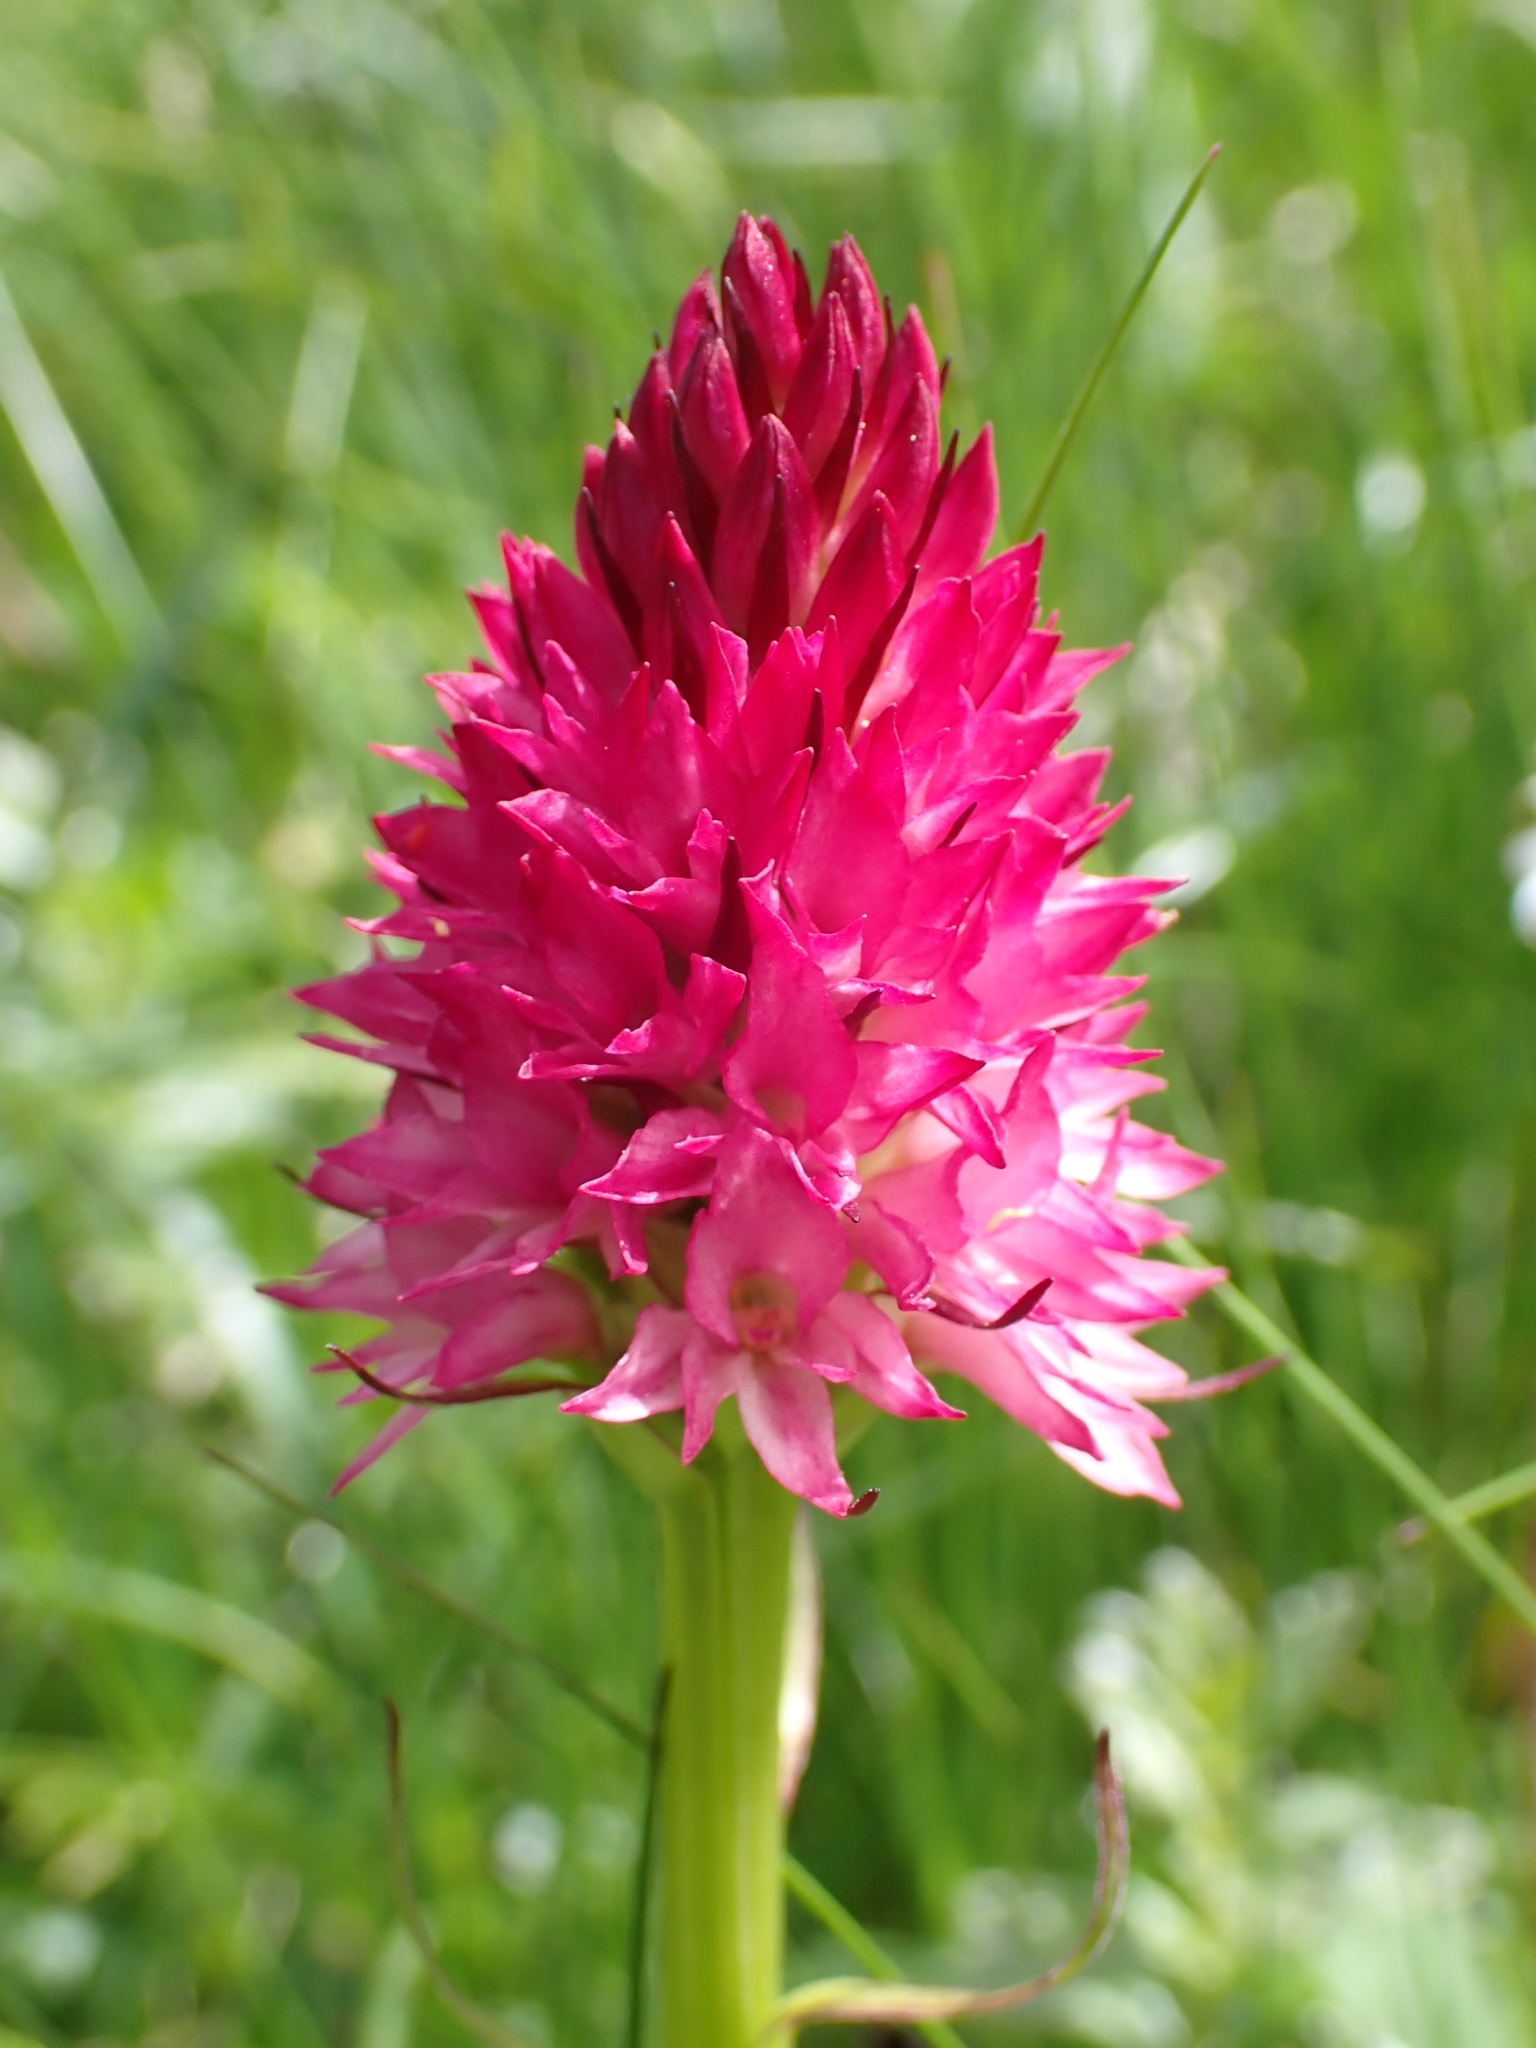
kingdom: Plantae
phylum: Tracheophyta
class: Liliopsida
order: Asparagales
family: Orchidaceae
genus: Gymnadenia
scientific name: Gymnadenia miniata
